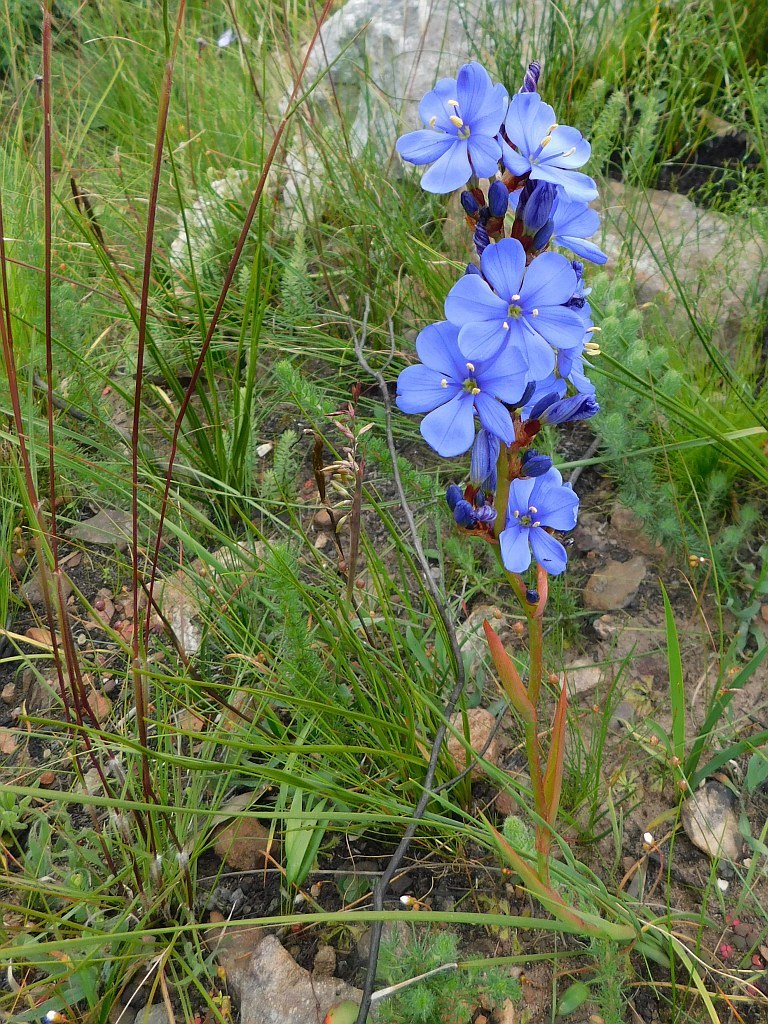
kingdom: Plantae
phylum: Tracheophyta
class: Liliopsida
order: Asparagales
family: Iridaceae
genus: Aristea
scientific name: Aristea bakeri
